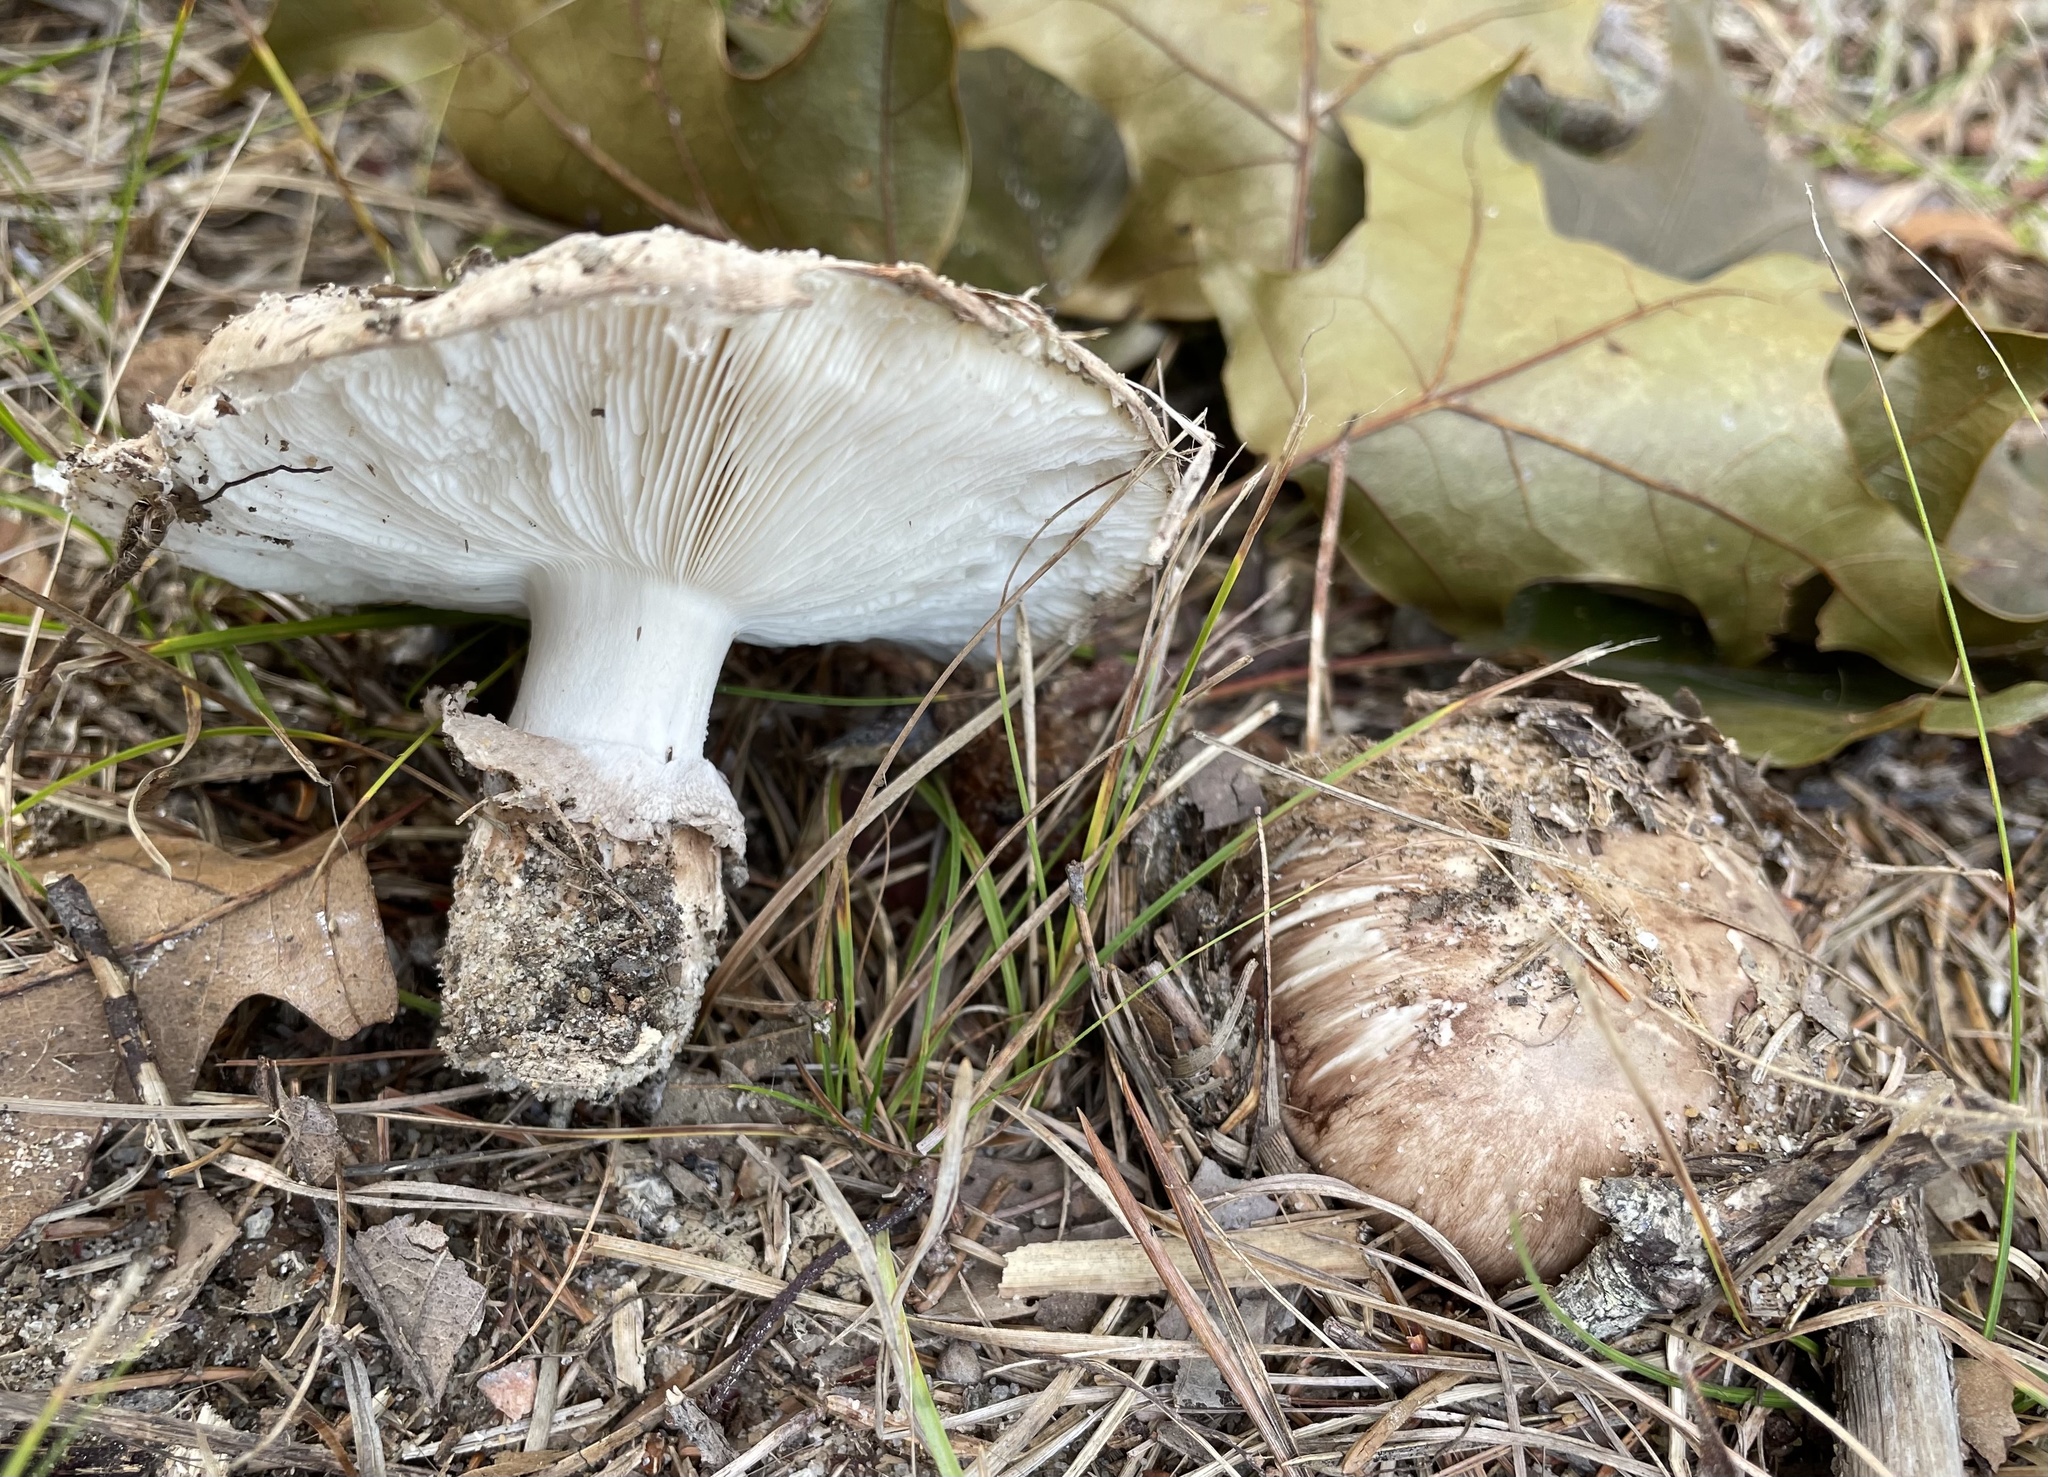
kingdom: Fungi
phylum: Basidiomycota
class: Agaricomycetes
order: Agaricales
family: Tricholomataceae
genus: Tricholoma
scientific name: Tricholoma caligatum
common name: True booted knight
